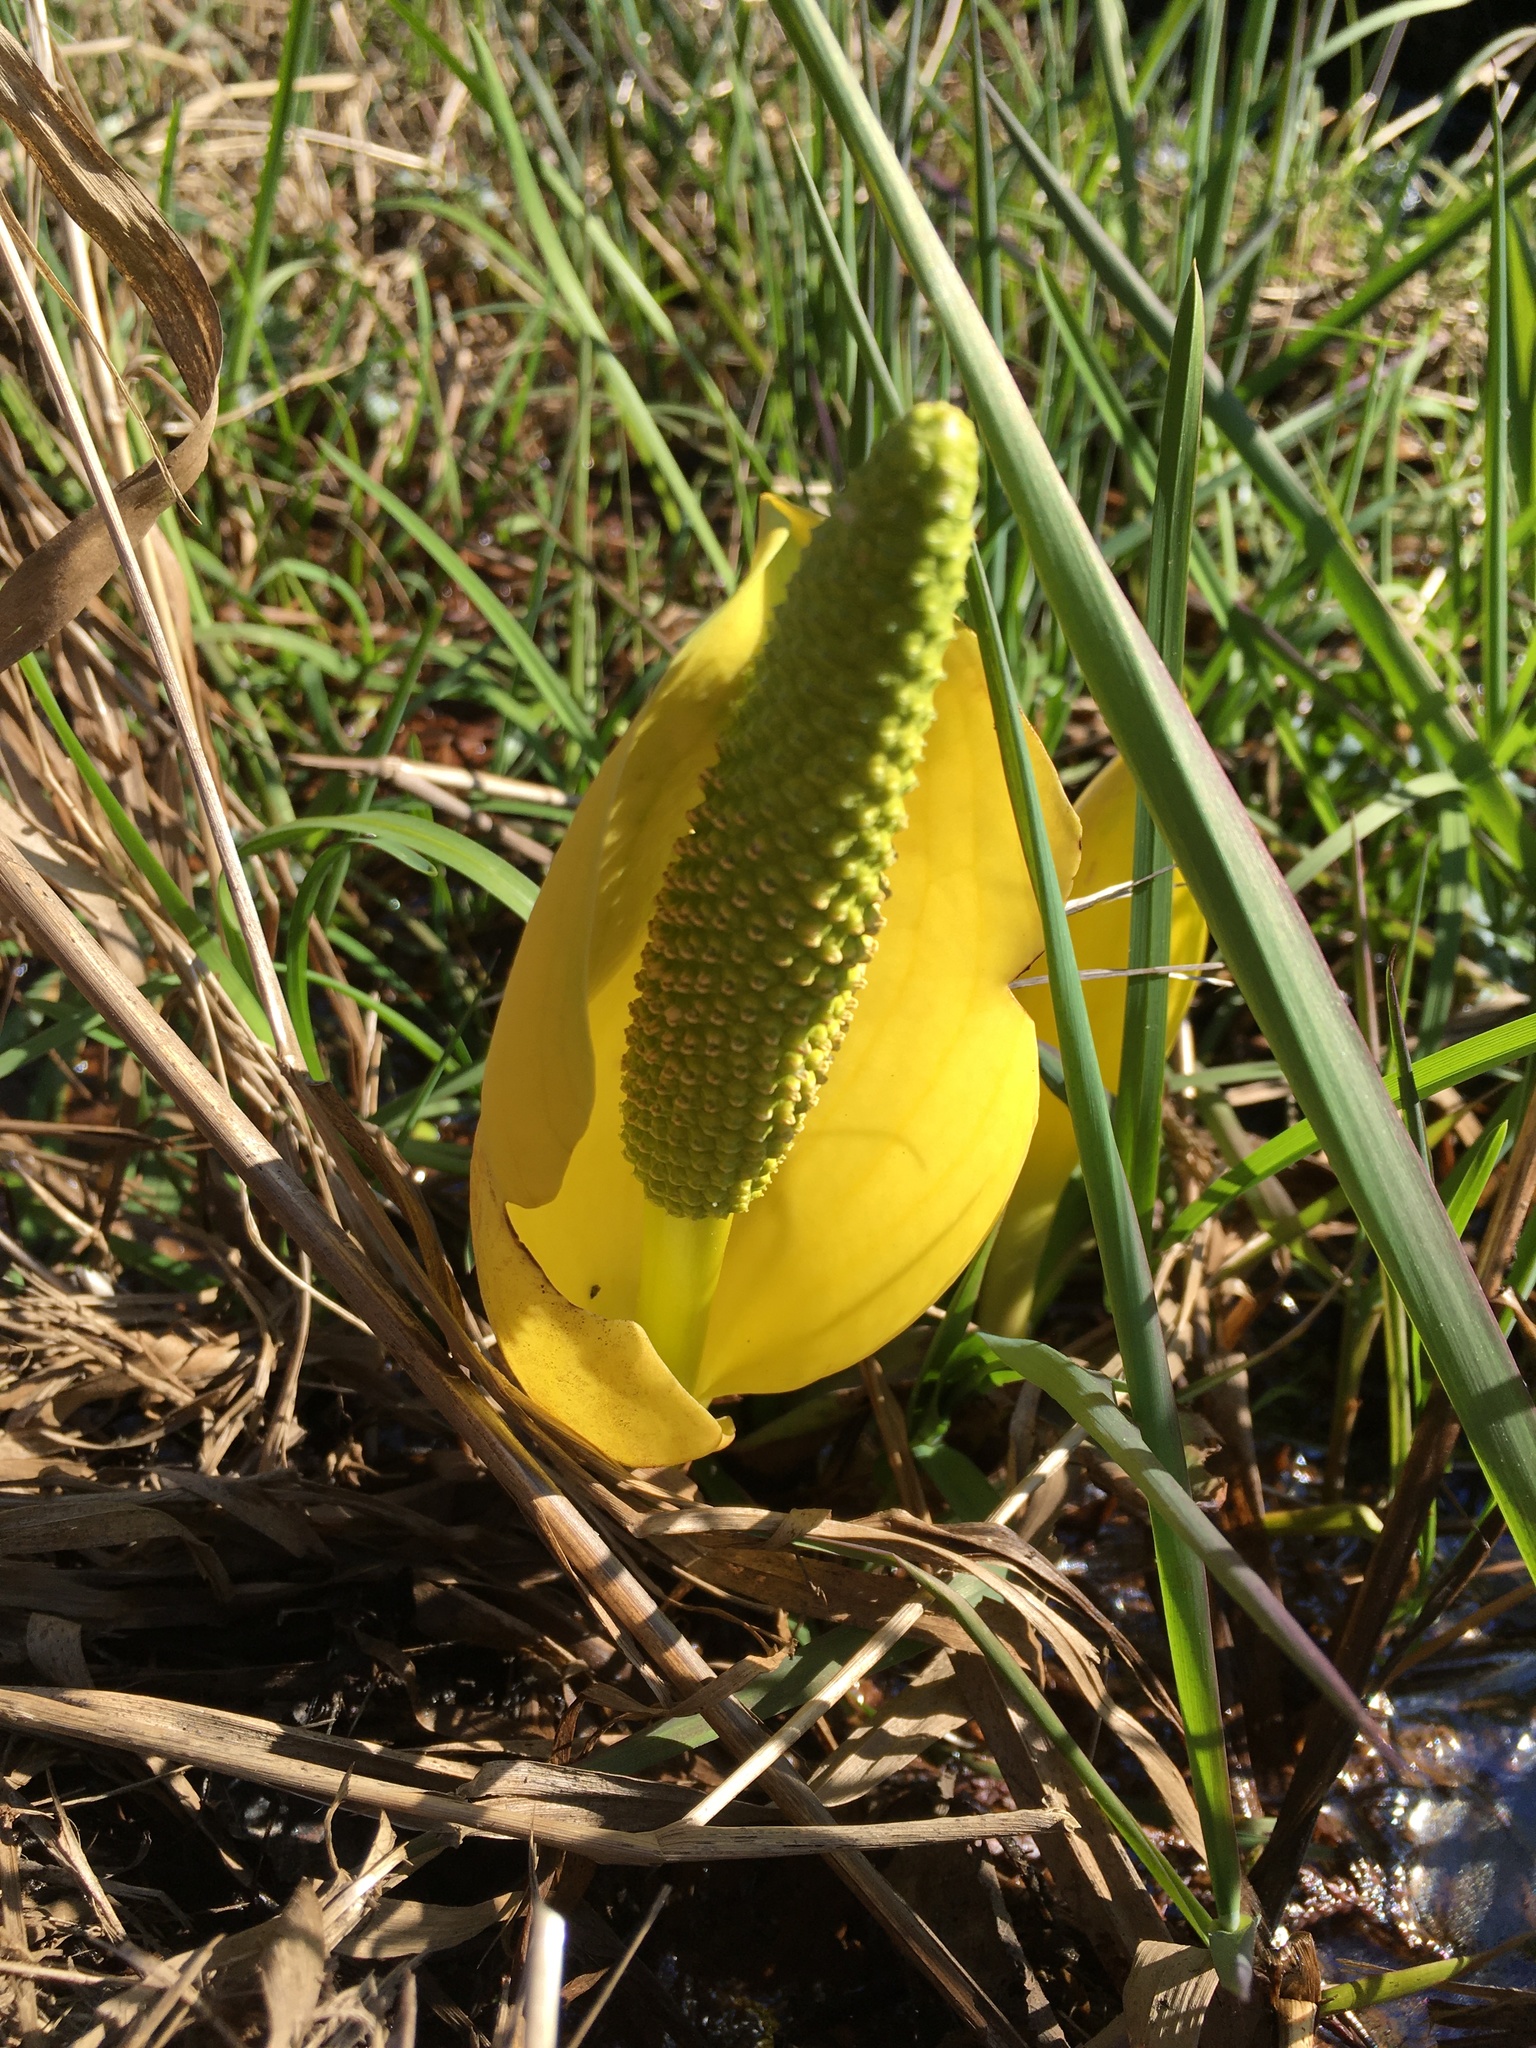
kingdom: Plantae
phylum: Tracheophyta
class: Liliopsida
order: Alismatales
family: Araceae
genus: Lysichiton
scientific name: Lysichiton americanus
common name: American skunk cabbage
